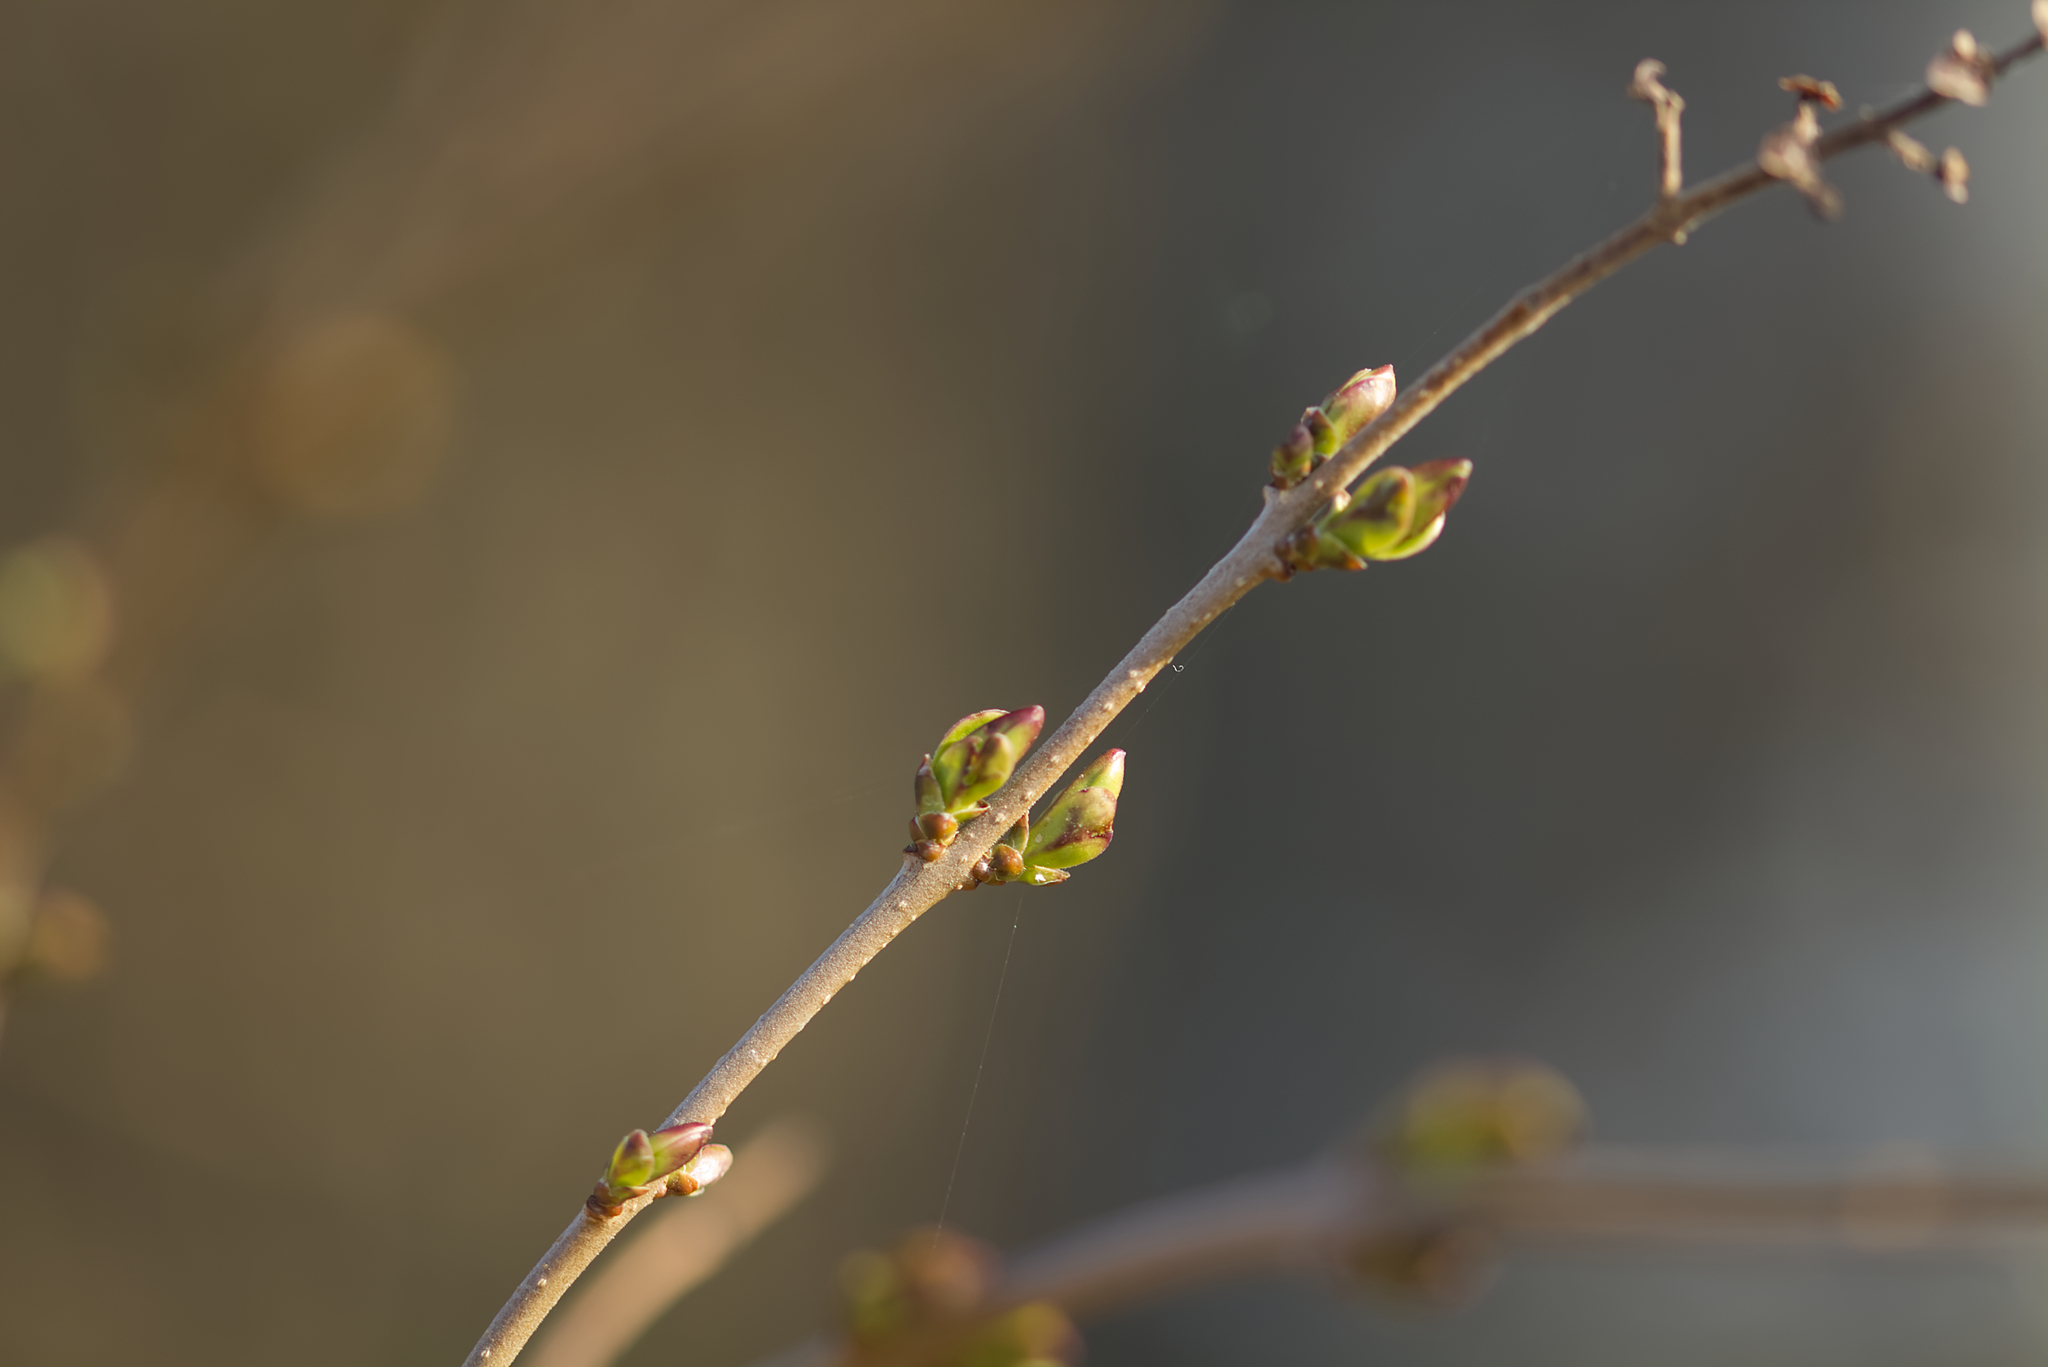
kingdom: Plantae
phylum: Tracheophyta
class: Magnoliopsida
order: Lamiales
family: Oleaceae
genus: Ligustrum
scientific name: Ligustrum vulgare
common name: Wild privet
